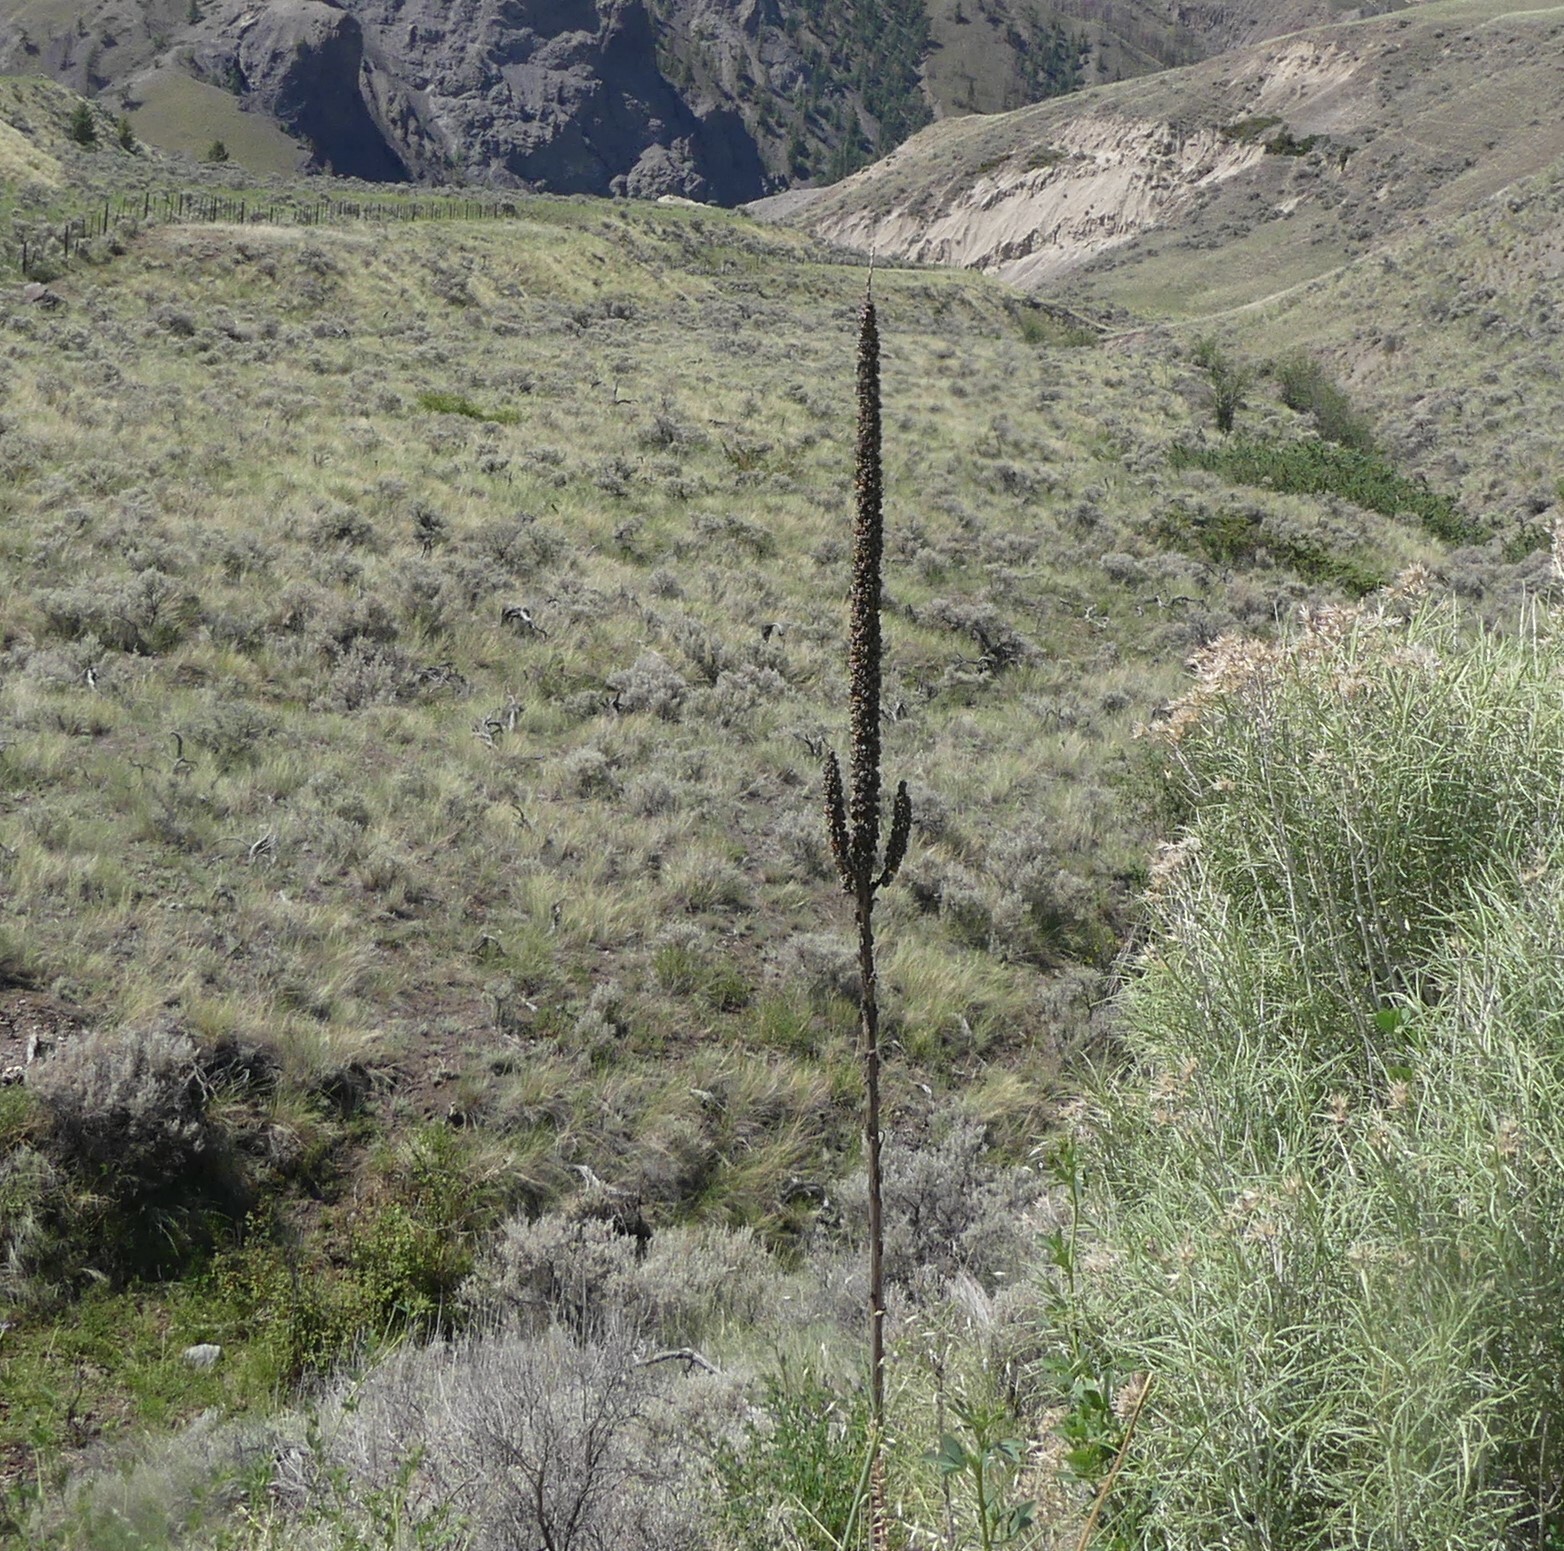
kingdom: Plantae
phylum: Tracheophyta
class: Magnoliopsida
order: Lamiales
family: Scrophulariaceae
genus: Verbascum
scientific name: Verbascum thapsus
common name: Common mullein
